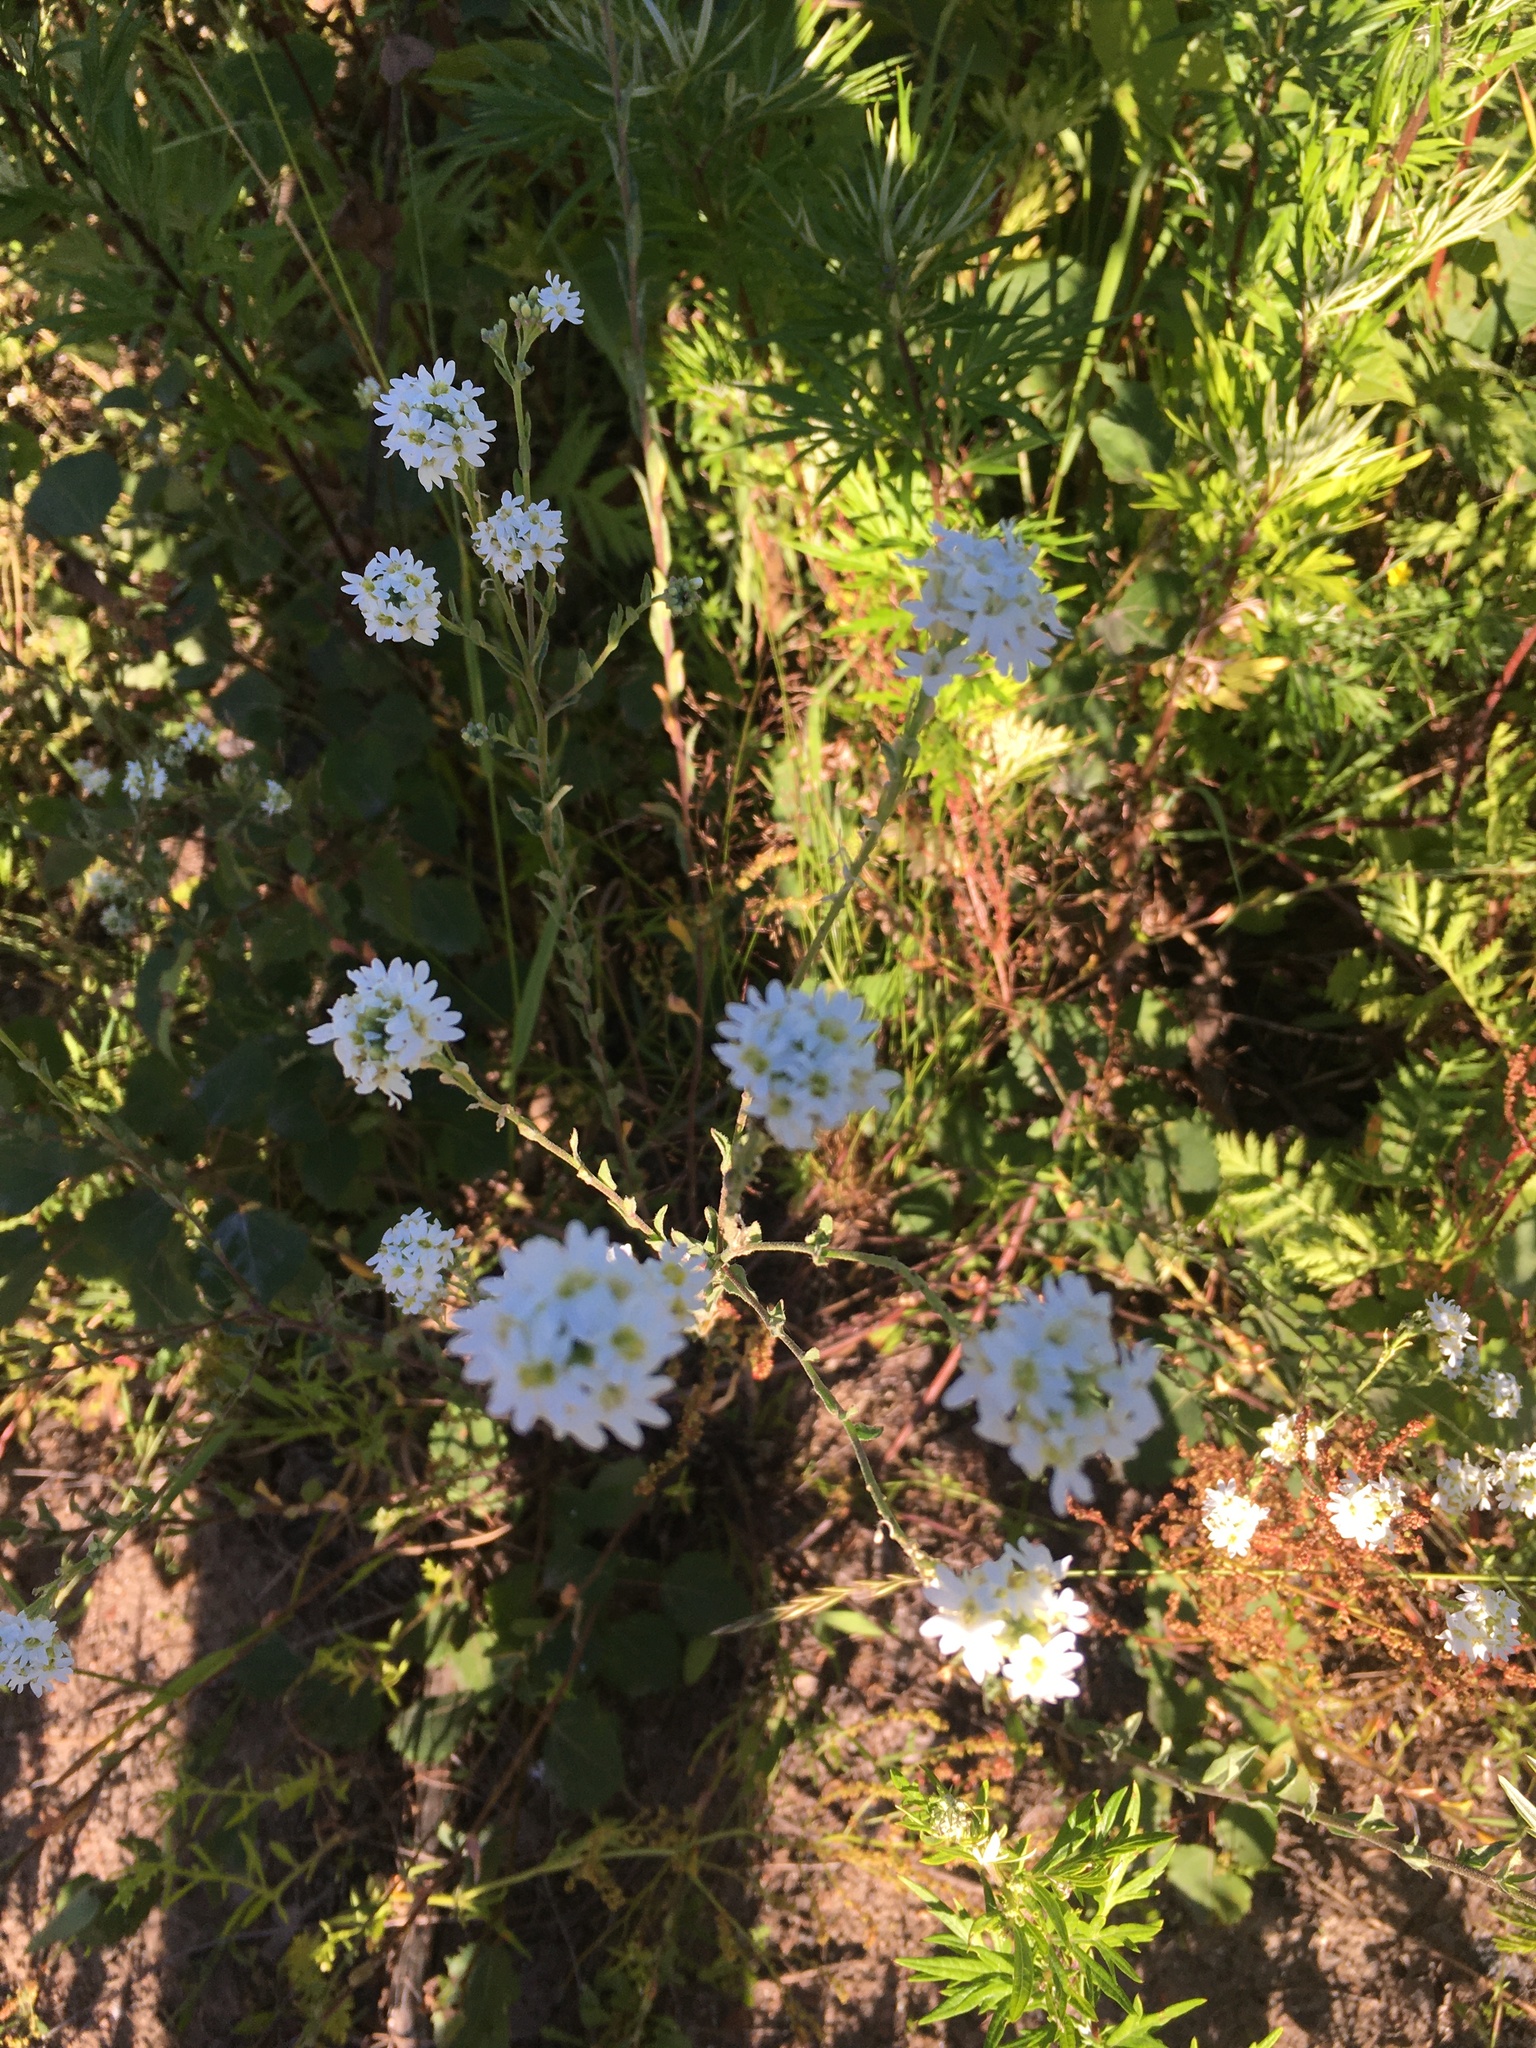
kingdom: Plantae
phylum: Tracheophyta
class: Magnoliopsida
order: Brassicales
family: Brassicaceae
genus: Berteroa
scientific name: Berteroa incana
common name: Hoary alison
